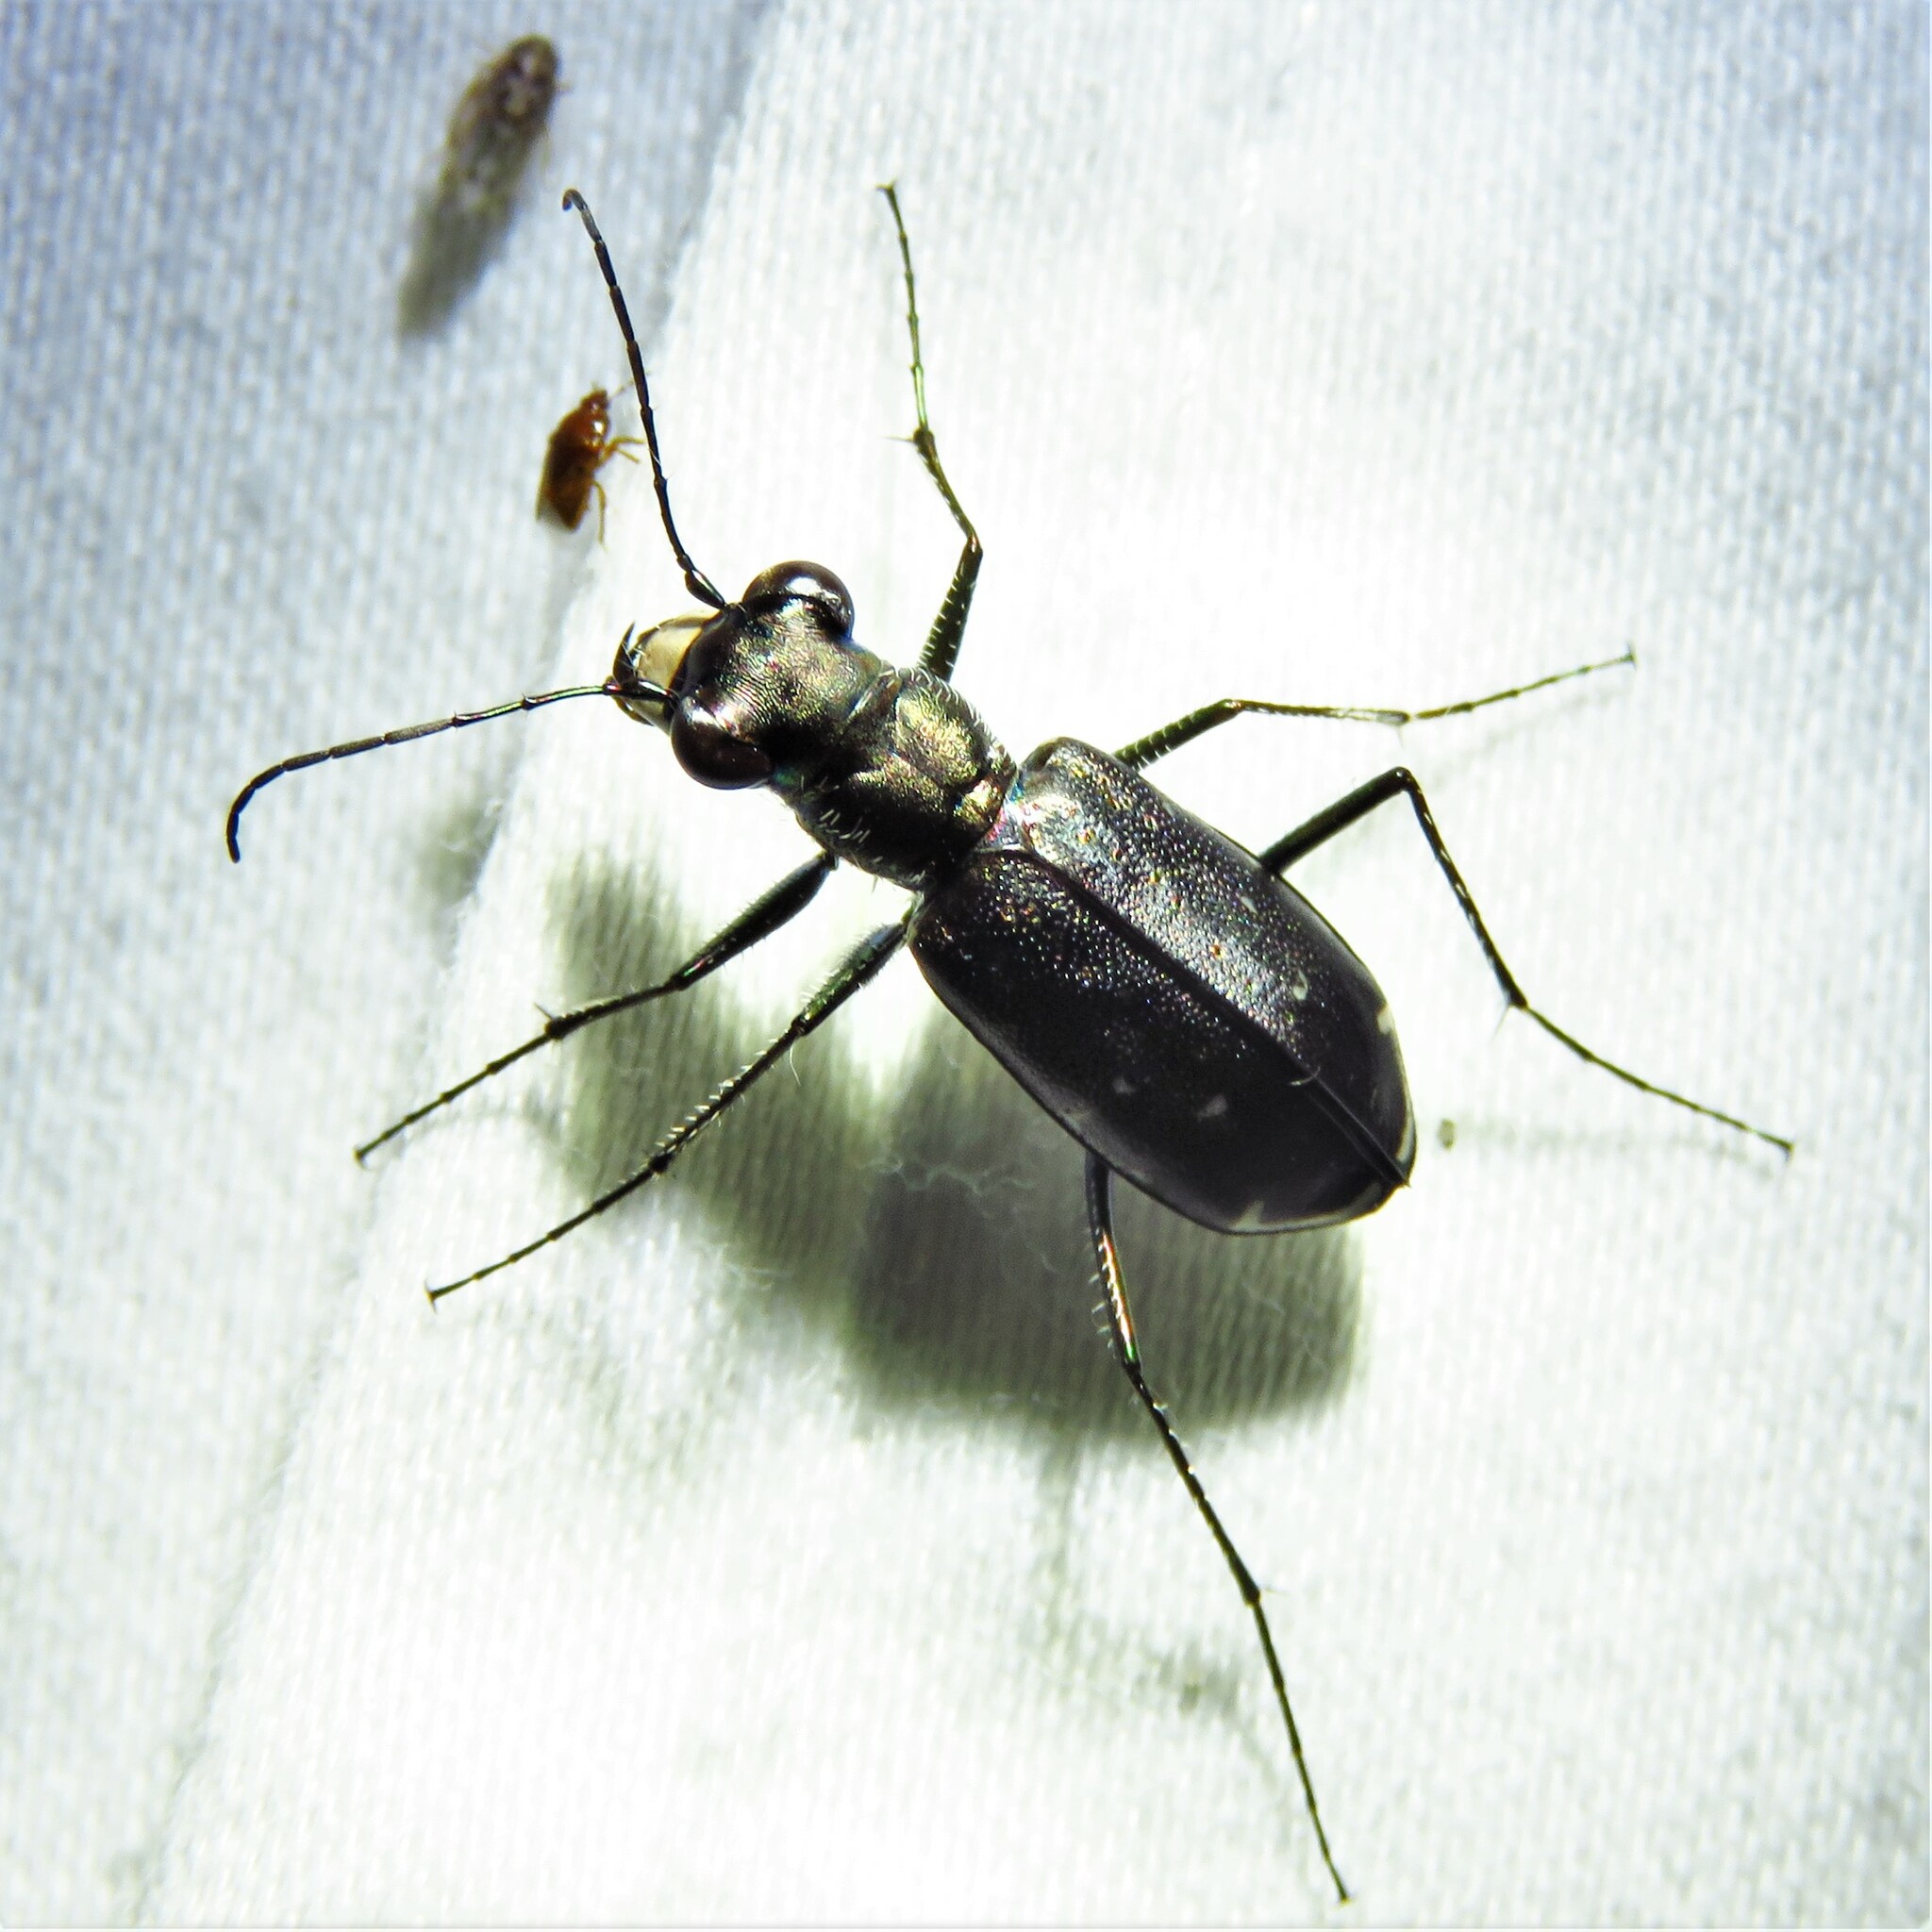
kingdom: Animalia
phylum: Arthropoda
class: Insecta
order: Coleoptera
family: Carabidae
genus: Cicindela
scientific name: Cicindela punctulata
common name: Punctured tiger beetle
